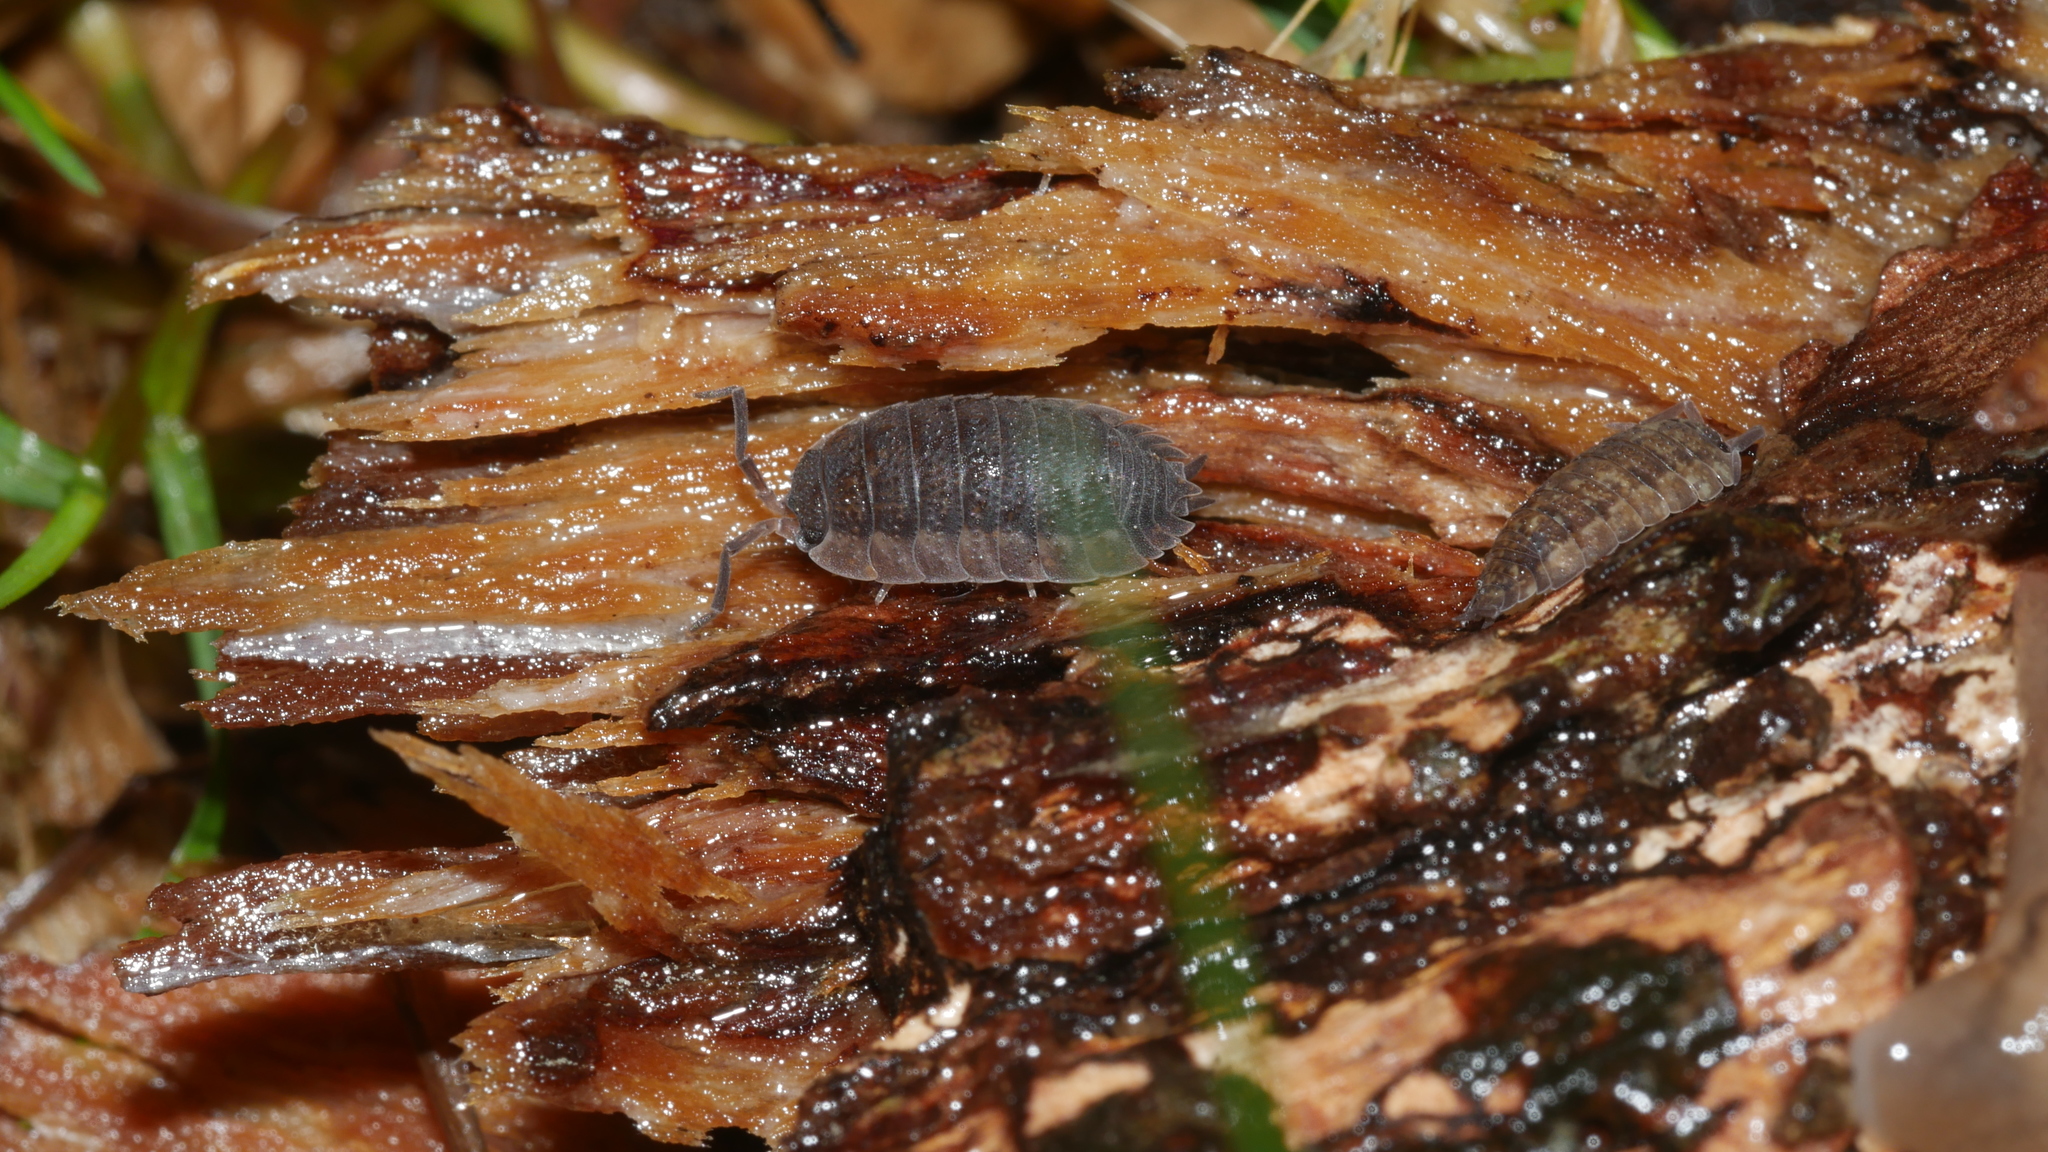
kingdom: Animalia
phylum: Arthropoda
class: Malacostraca
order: Isopoda
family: Porcellionidae
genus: Porcellio
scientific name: Porcellio scaber
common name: Common rough woodlouse
